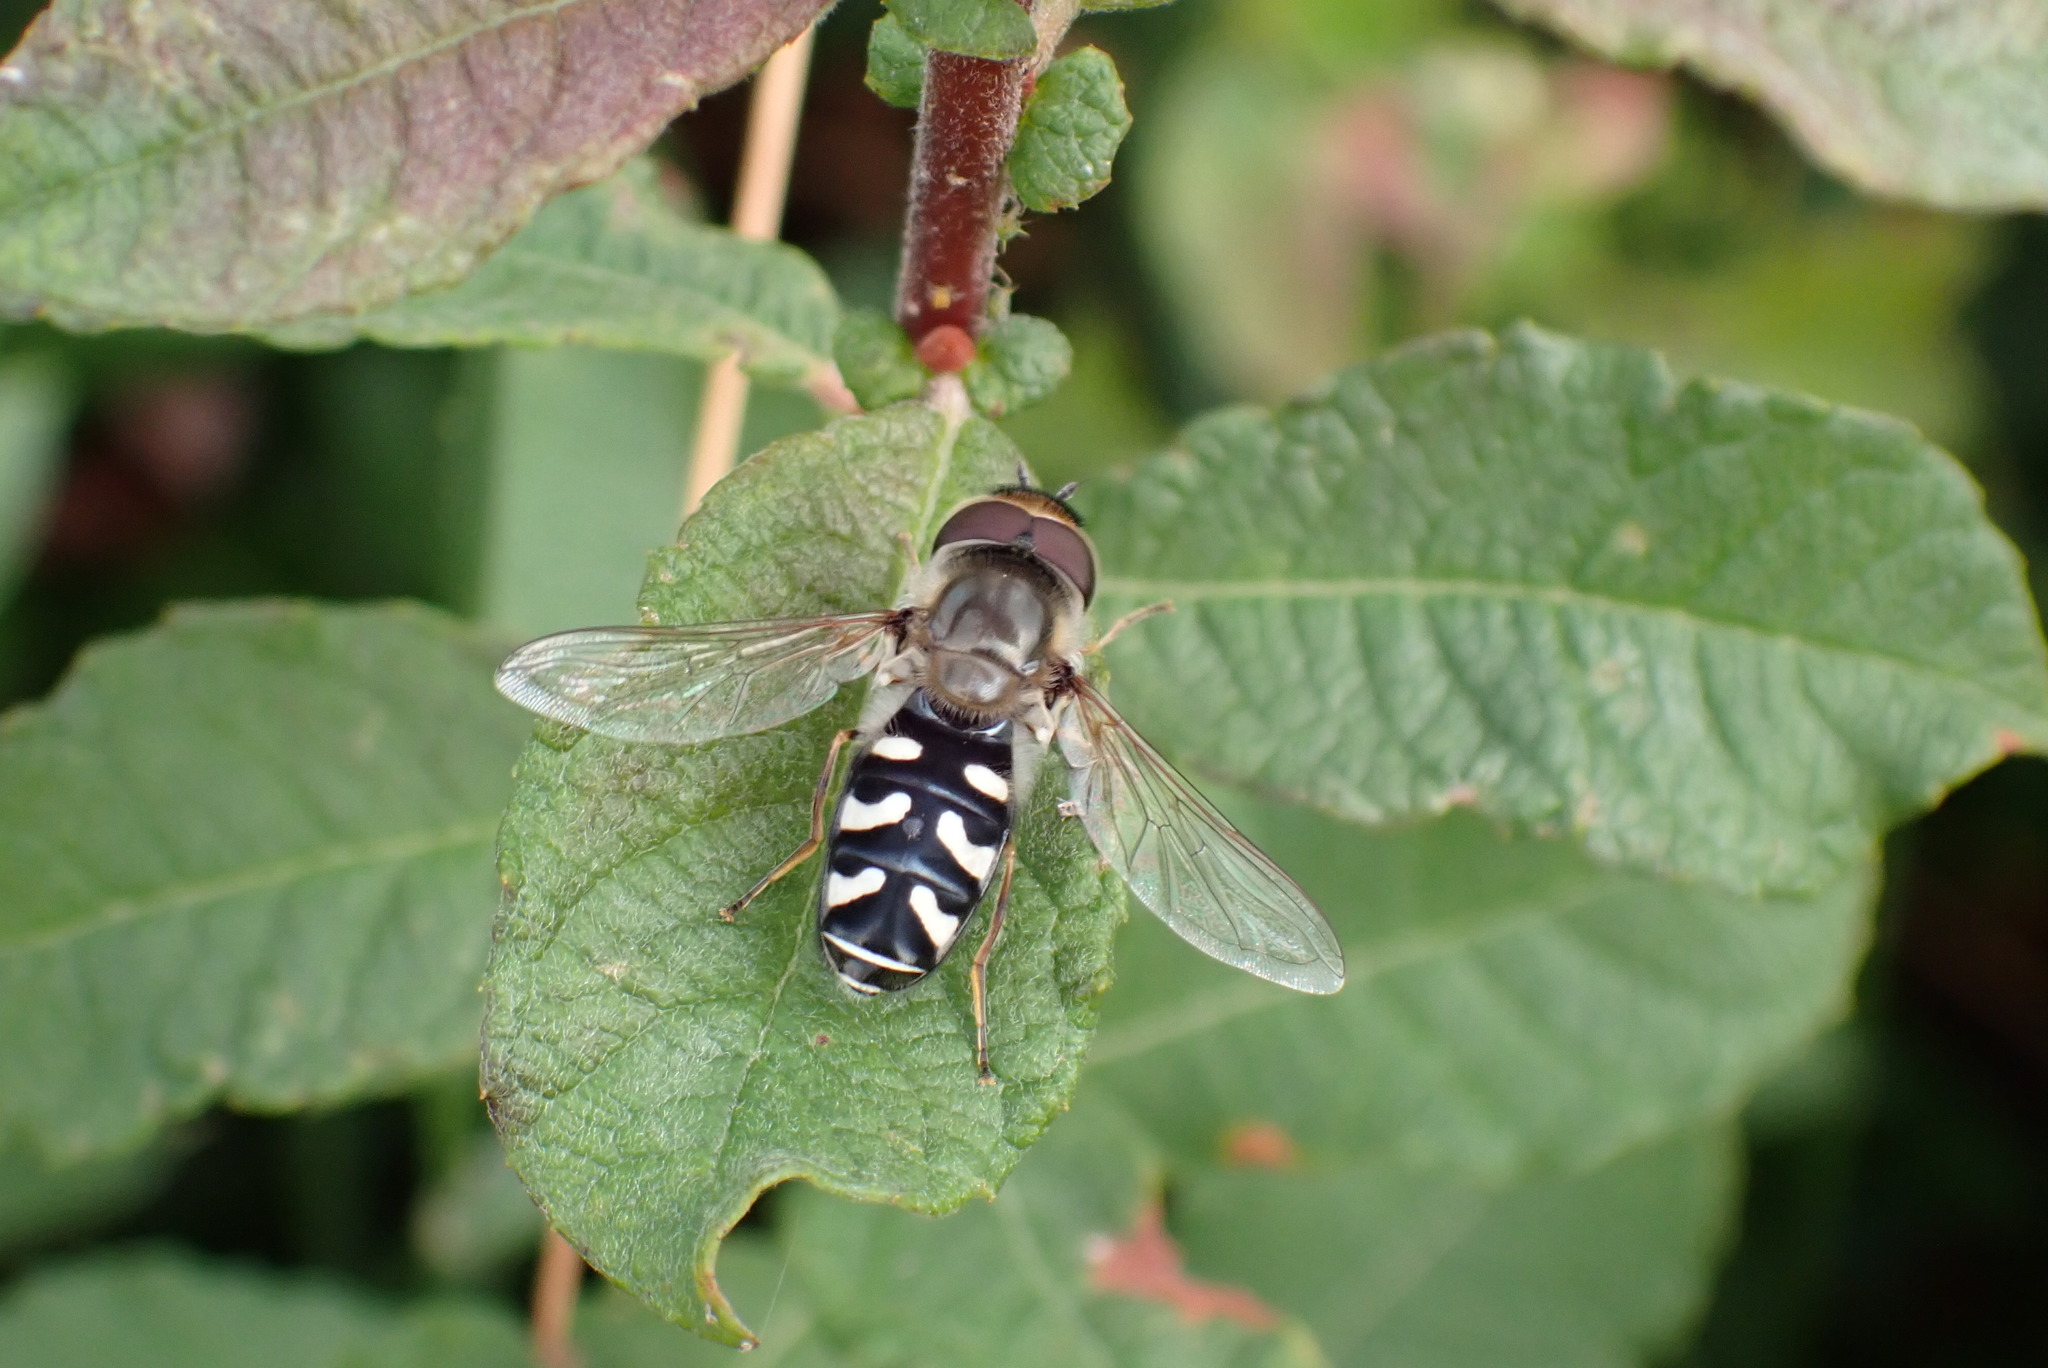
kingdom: Animalia
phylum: Arthropoda
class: Insecta
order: Diptera
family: Syrphidae
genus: Scaeva
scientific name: Scaeva pyrastri
